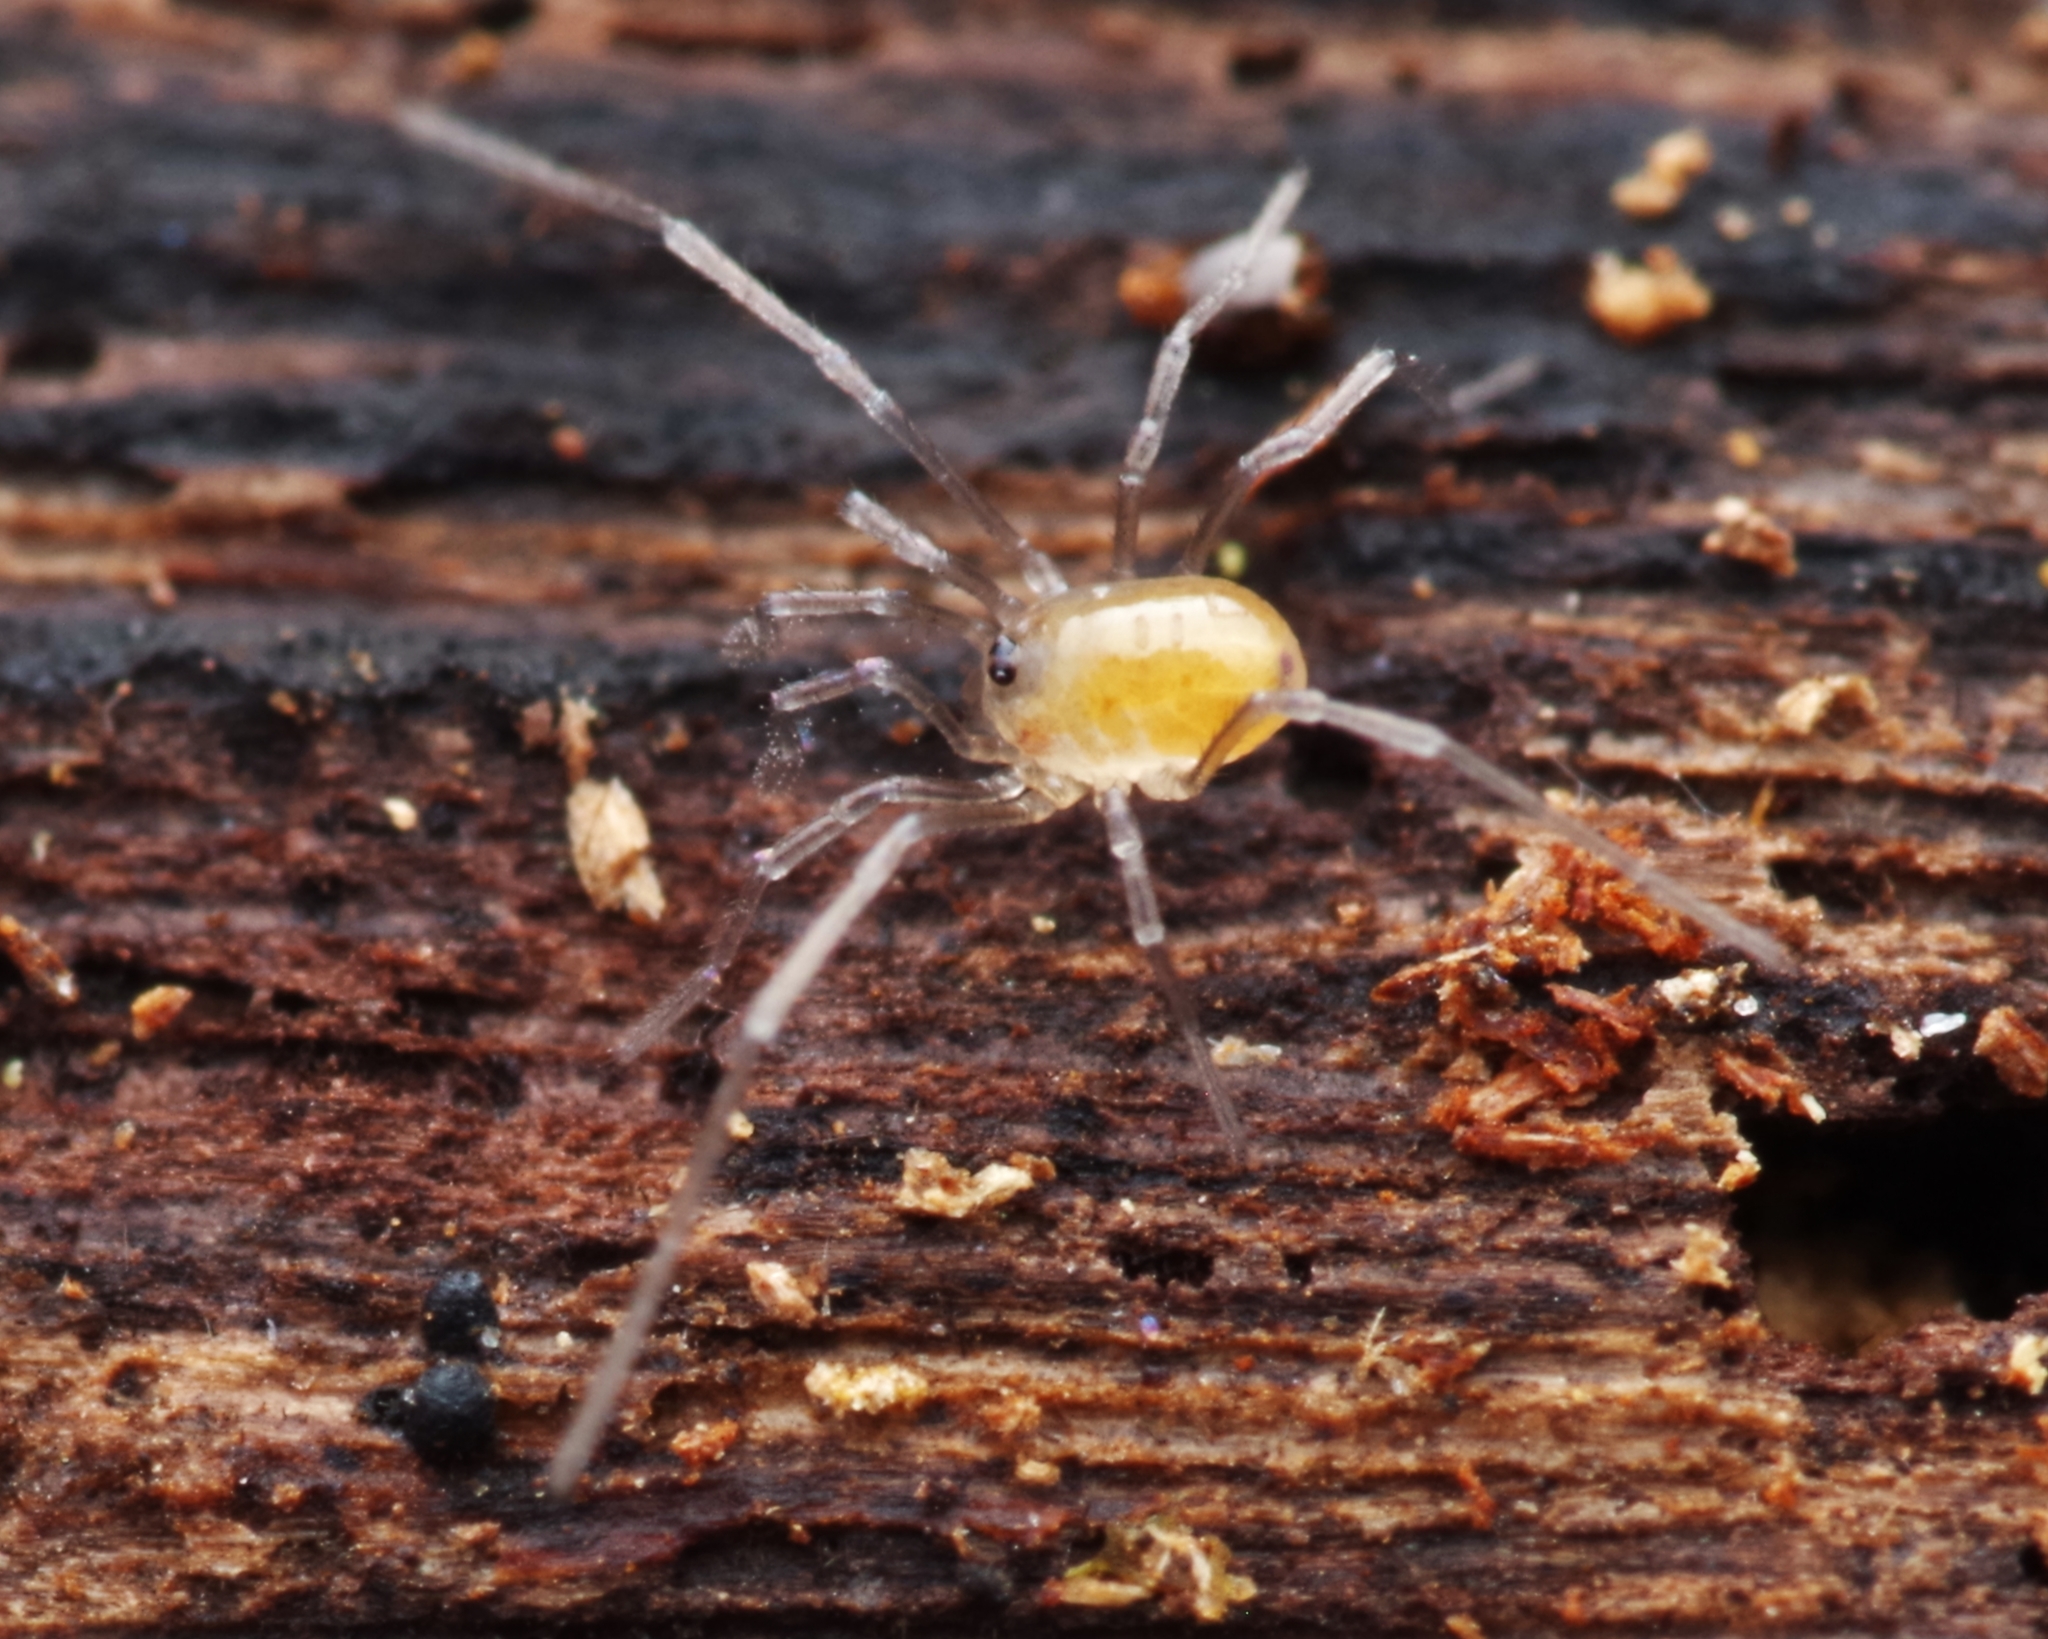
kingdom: Animalia
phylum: Arthropoda
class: Arachnida
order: Opiliones
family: Nemastomatidae
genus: Mitostoma
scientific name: Mitostoma chrysomelas
